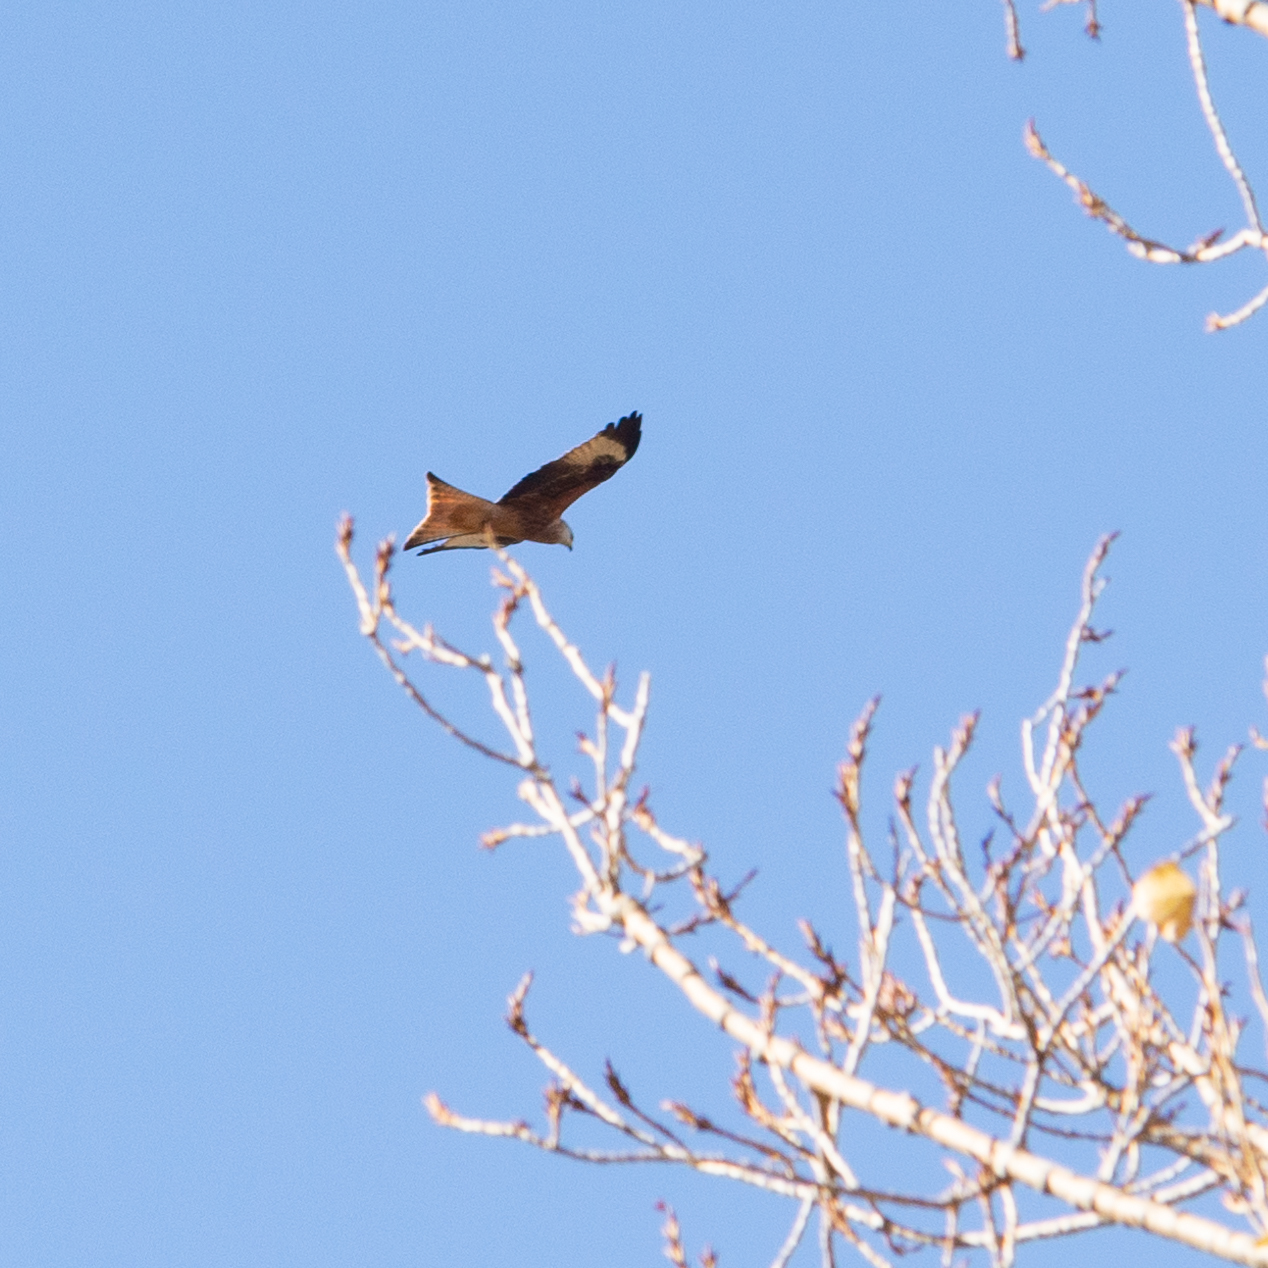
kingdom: Animalia
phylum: Chordata
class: Aves
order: Accipitriformes
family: Accipitridae
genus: Milvus
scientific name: Milvus milvus
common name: Red kite
